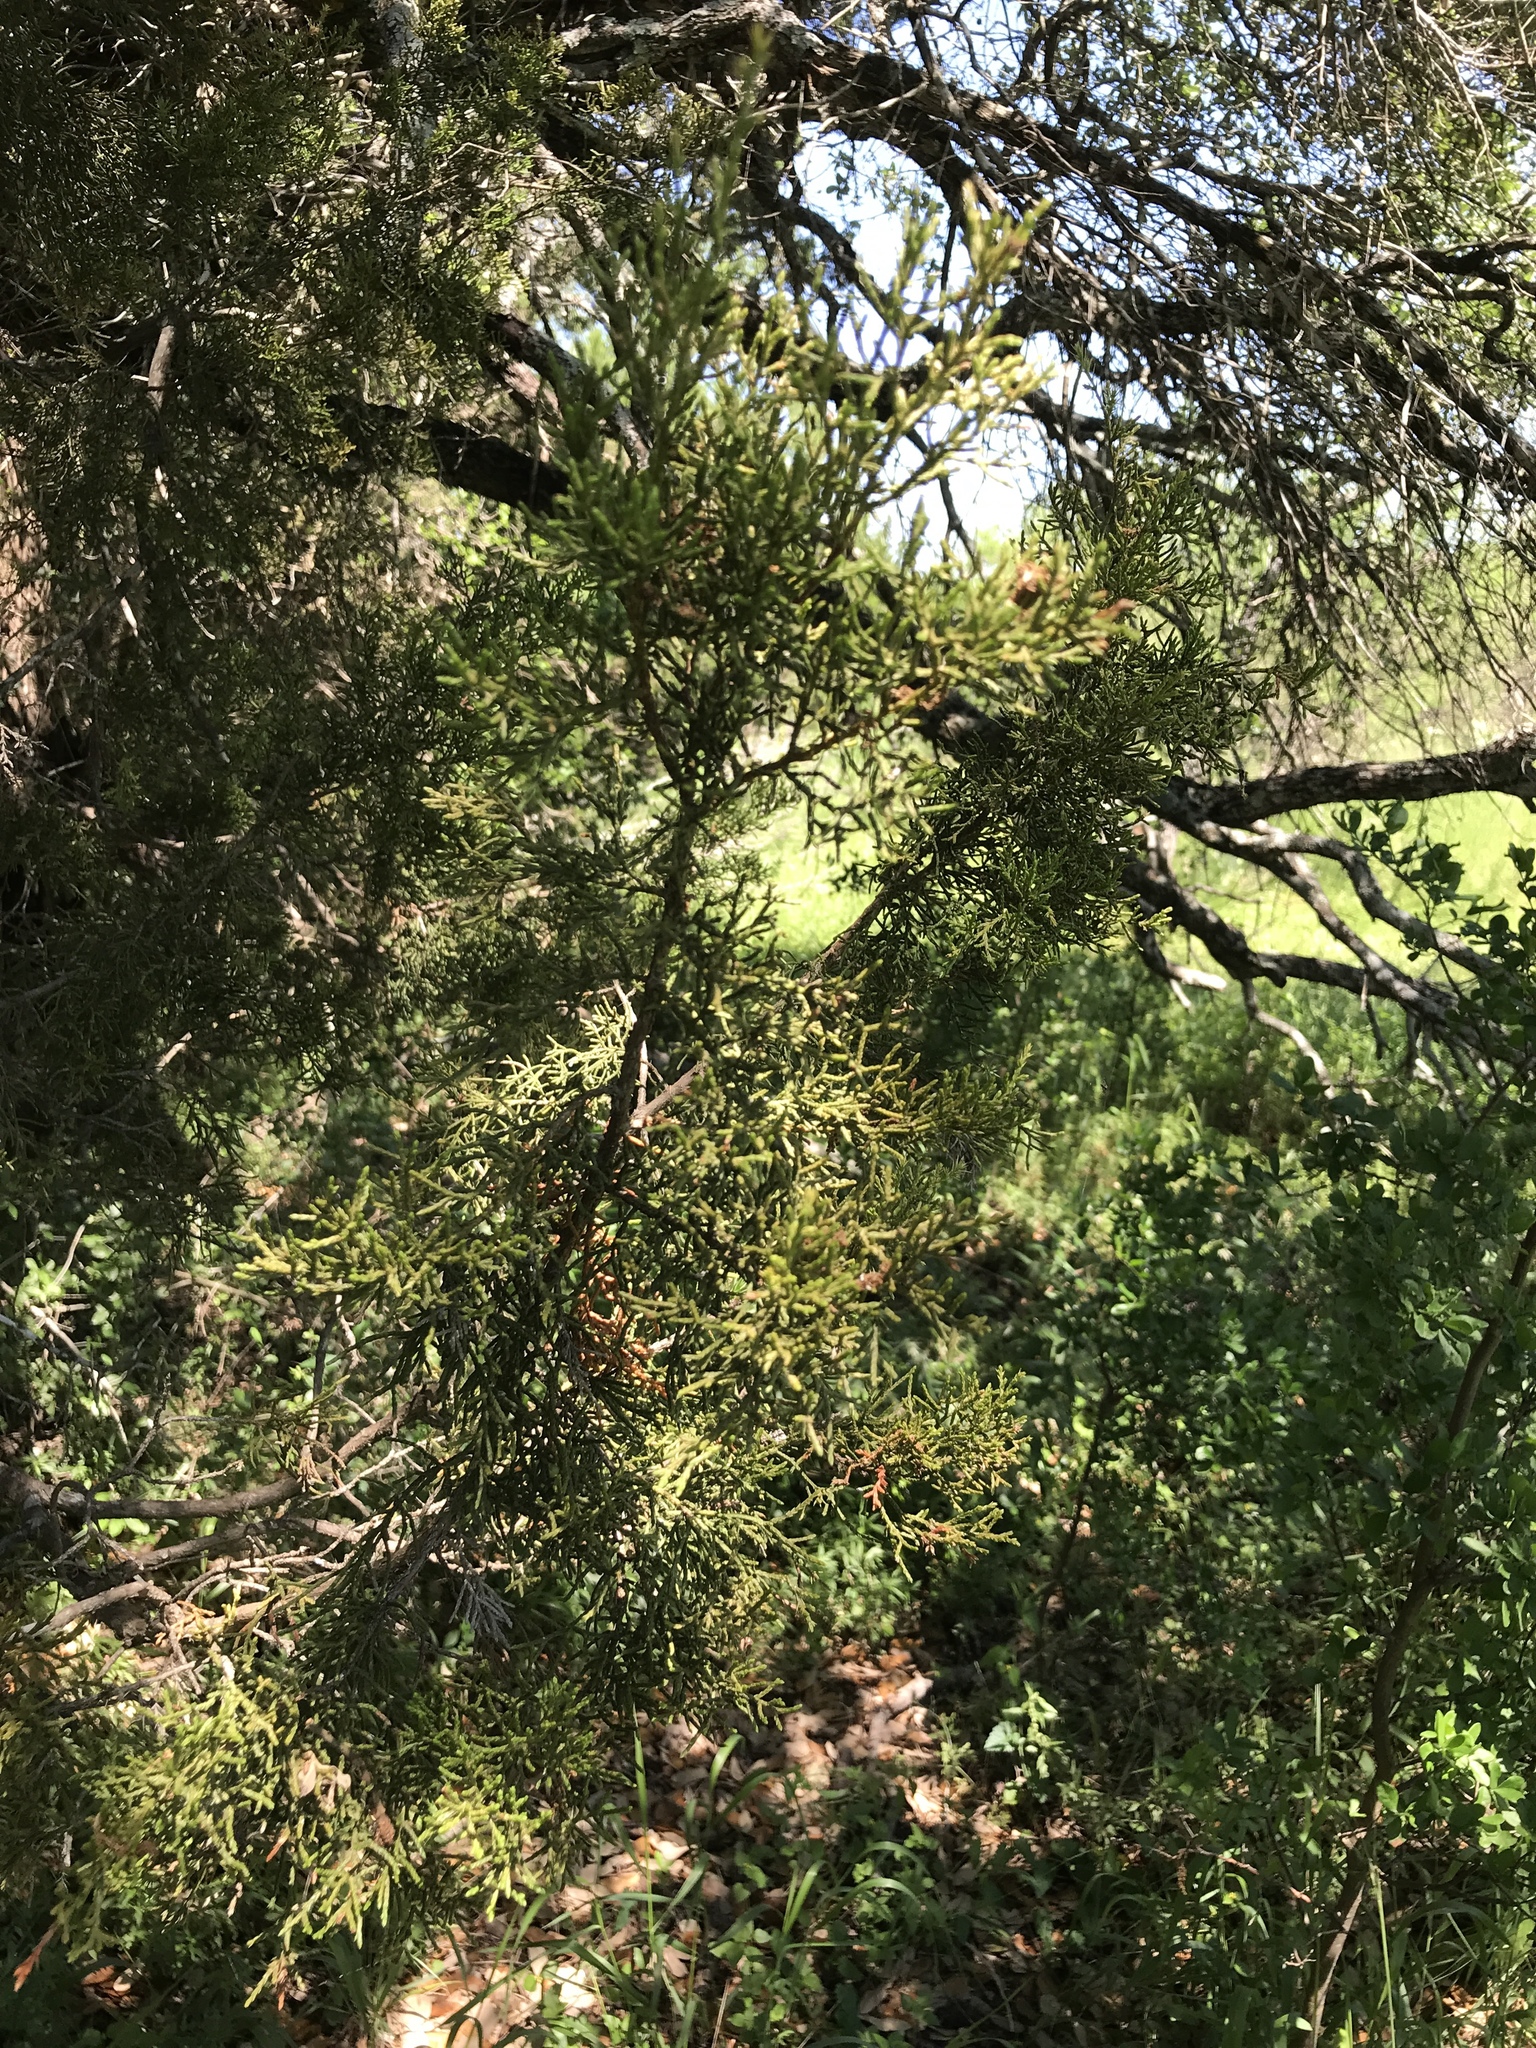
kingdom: Plantae
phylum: Tracheophyta
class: Pinopsida
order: Pinales
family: Cupressaceae
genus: Juniperus
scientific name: Juniperus ashei
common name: Mexican juniper
